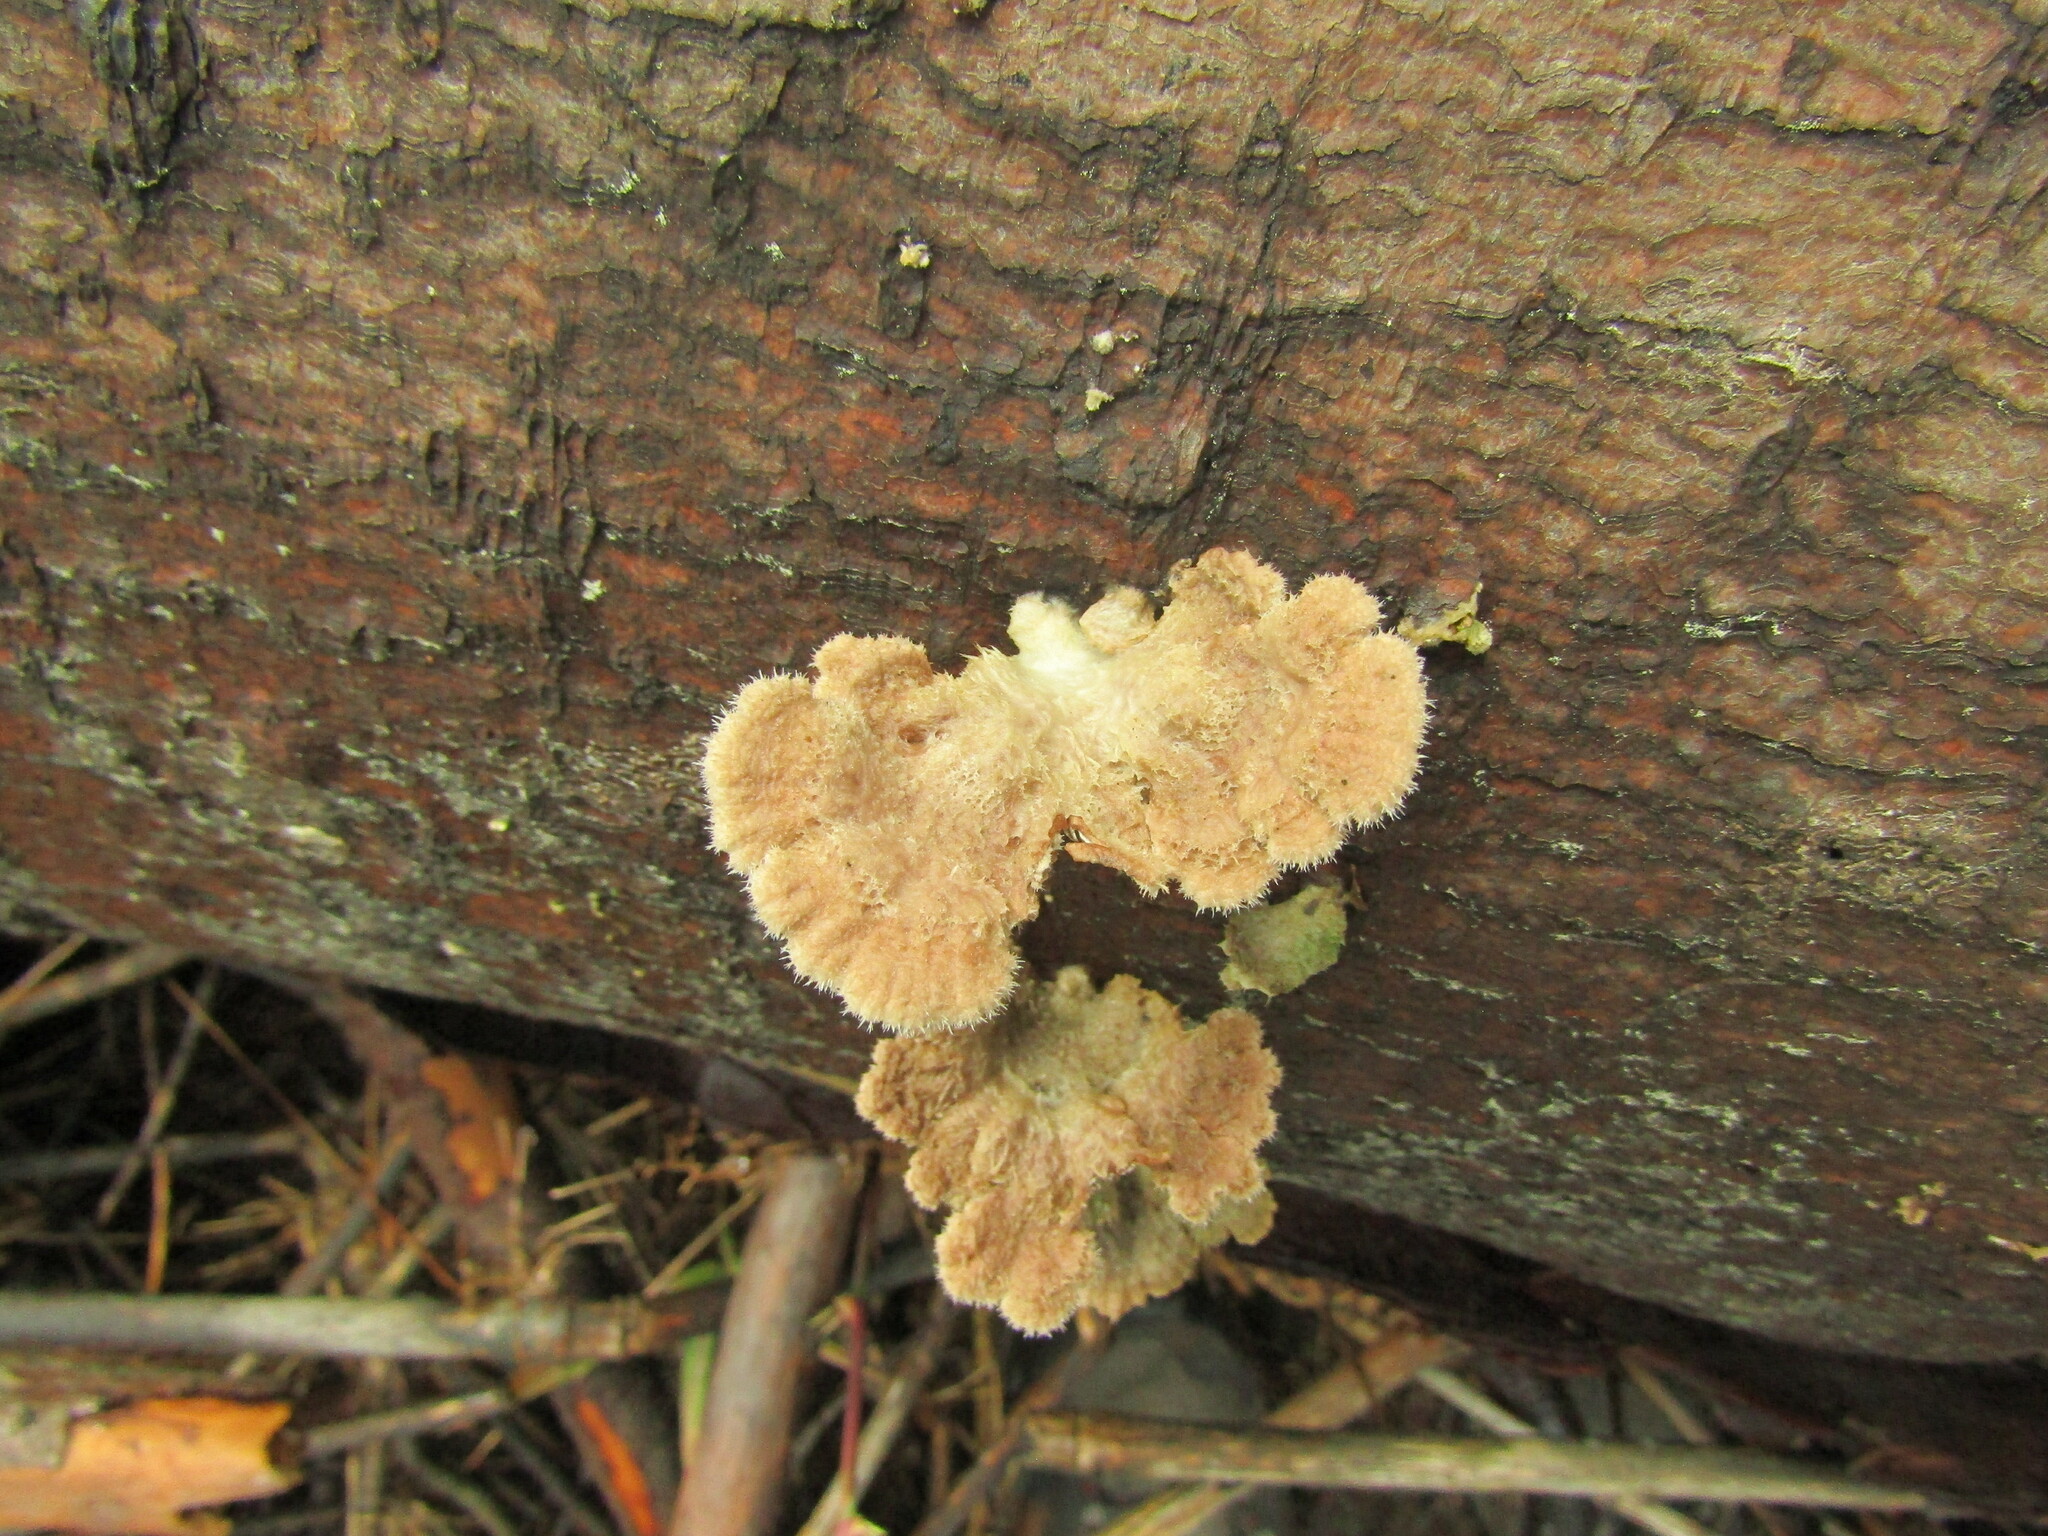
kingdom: Fungi
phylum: Basidiomycota
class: Agaricomycetes
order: Agaricales
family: Schizophyllaceae
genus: Schizophyllum
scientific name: Schizophyllum commune
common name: Common porecrust
